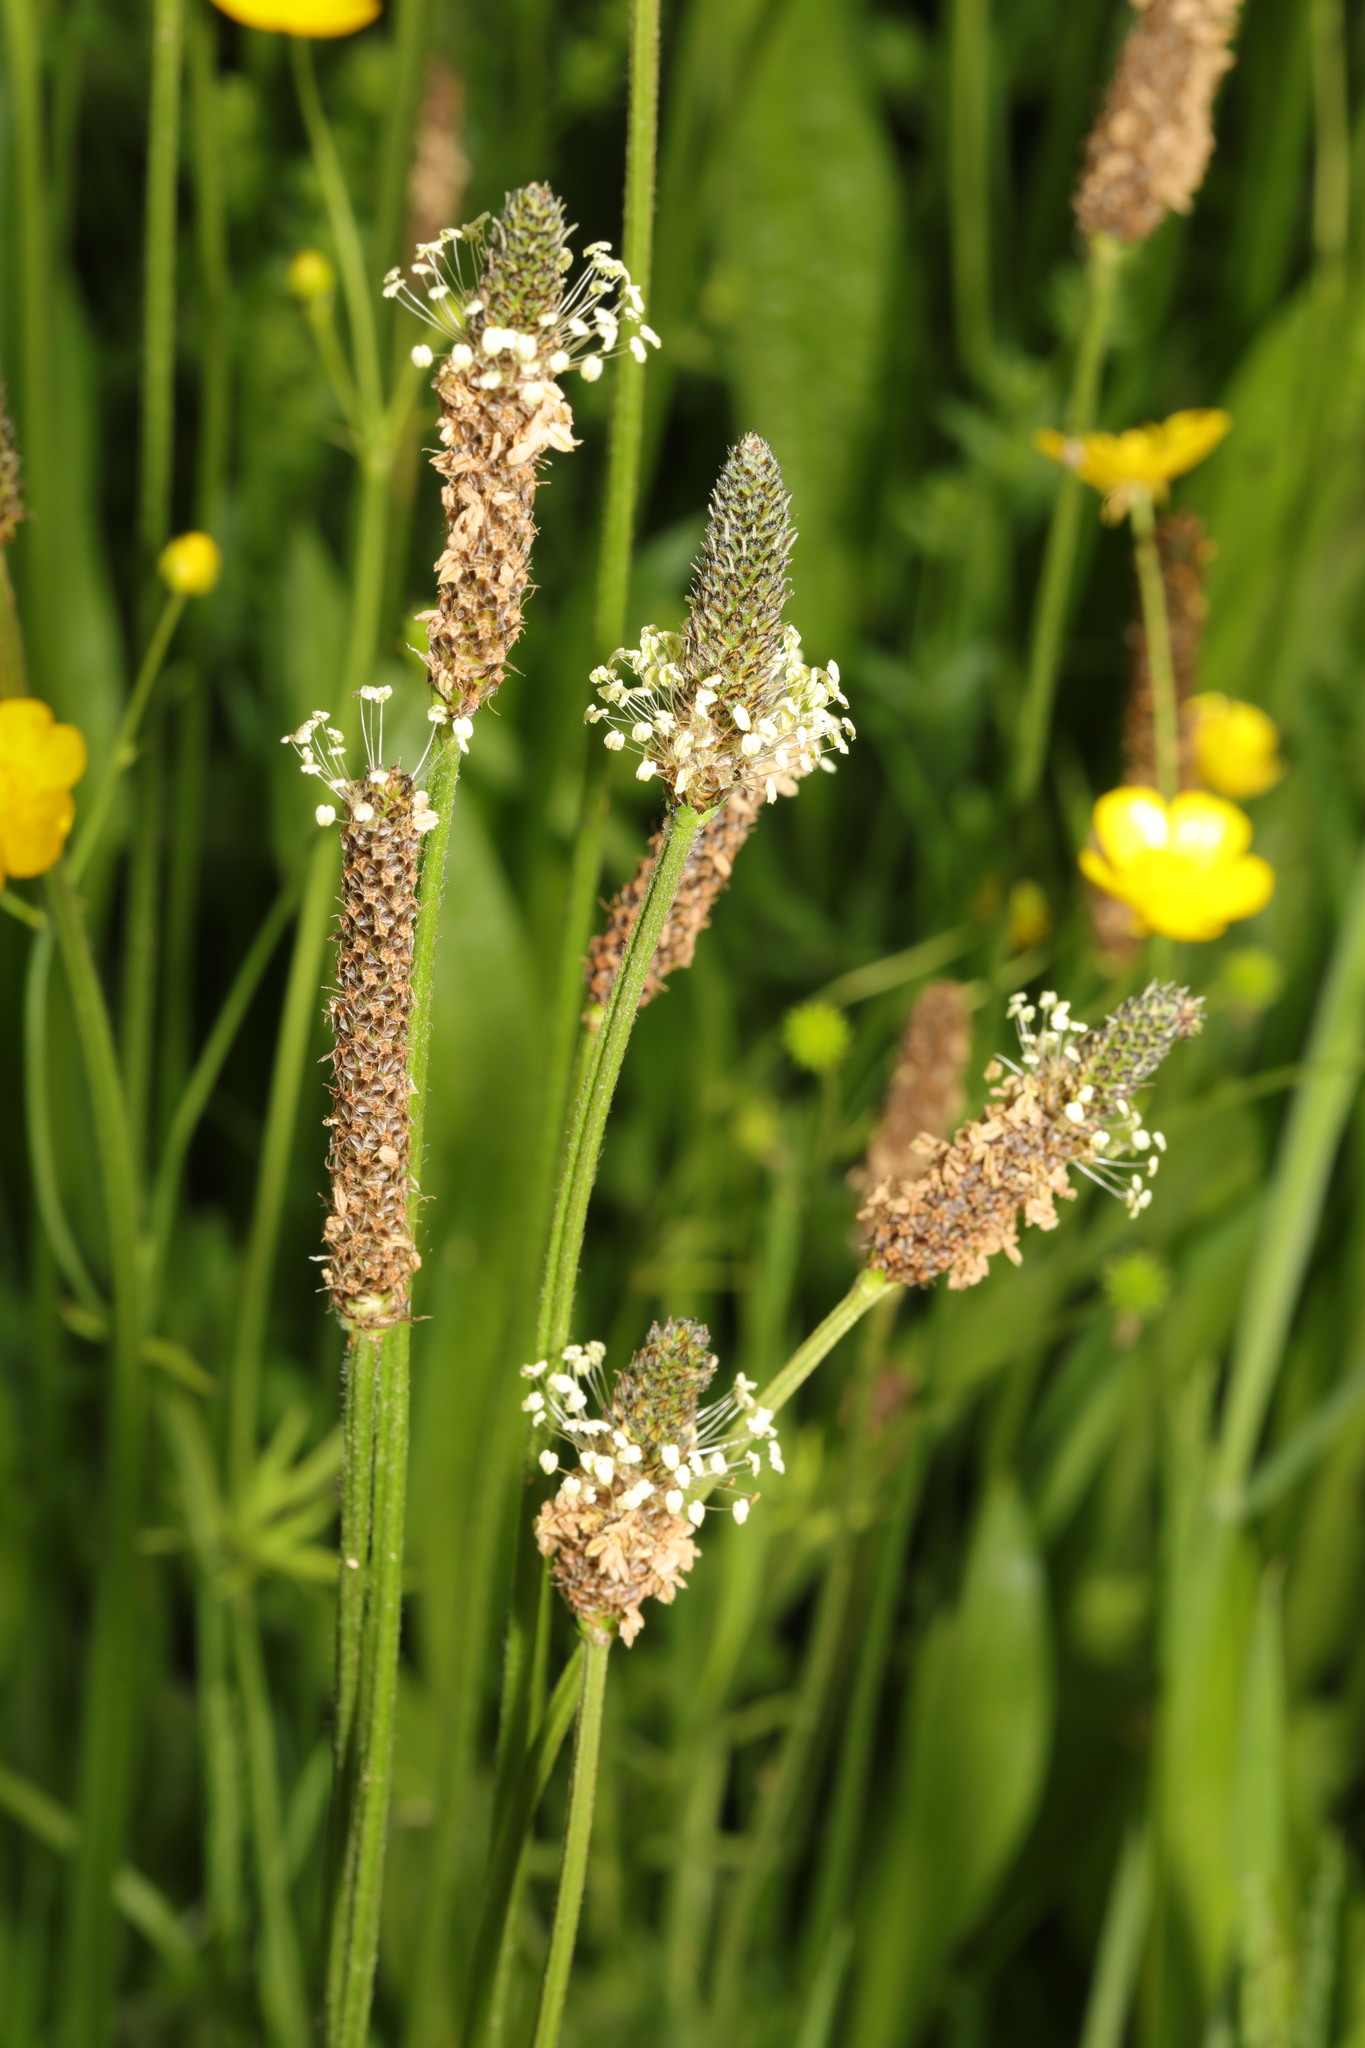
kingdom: Plantae
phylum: Tracheophyta
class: Magnoliopsida
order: Lamiales
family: Plantaginaceae
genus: Plantago
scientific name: Plantago lanceolata
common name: Ribwort plantain
